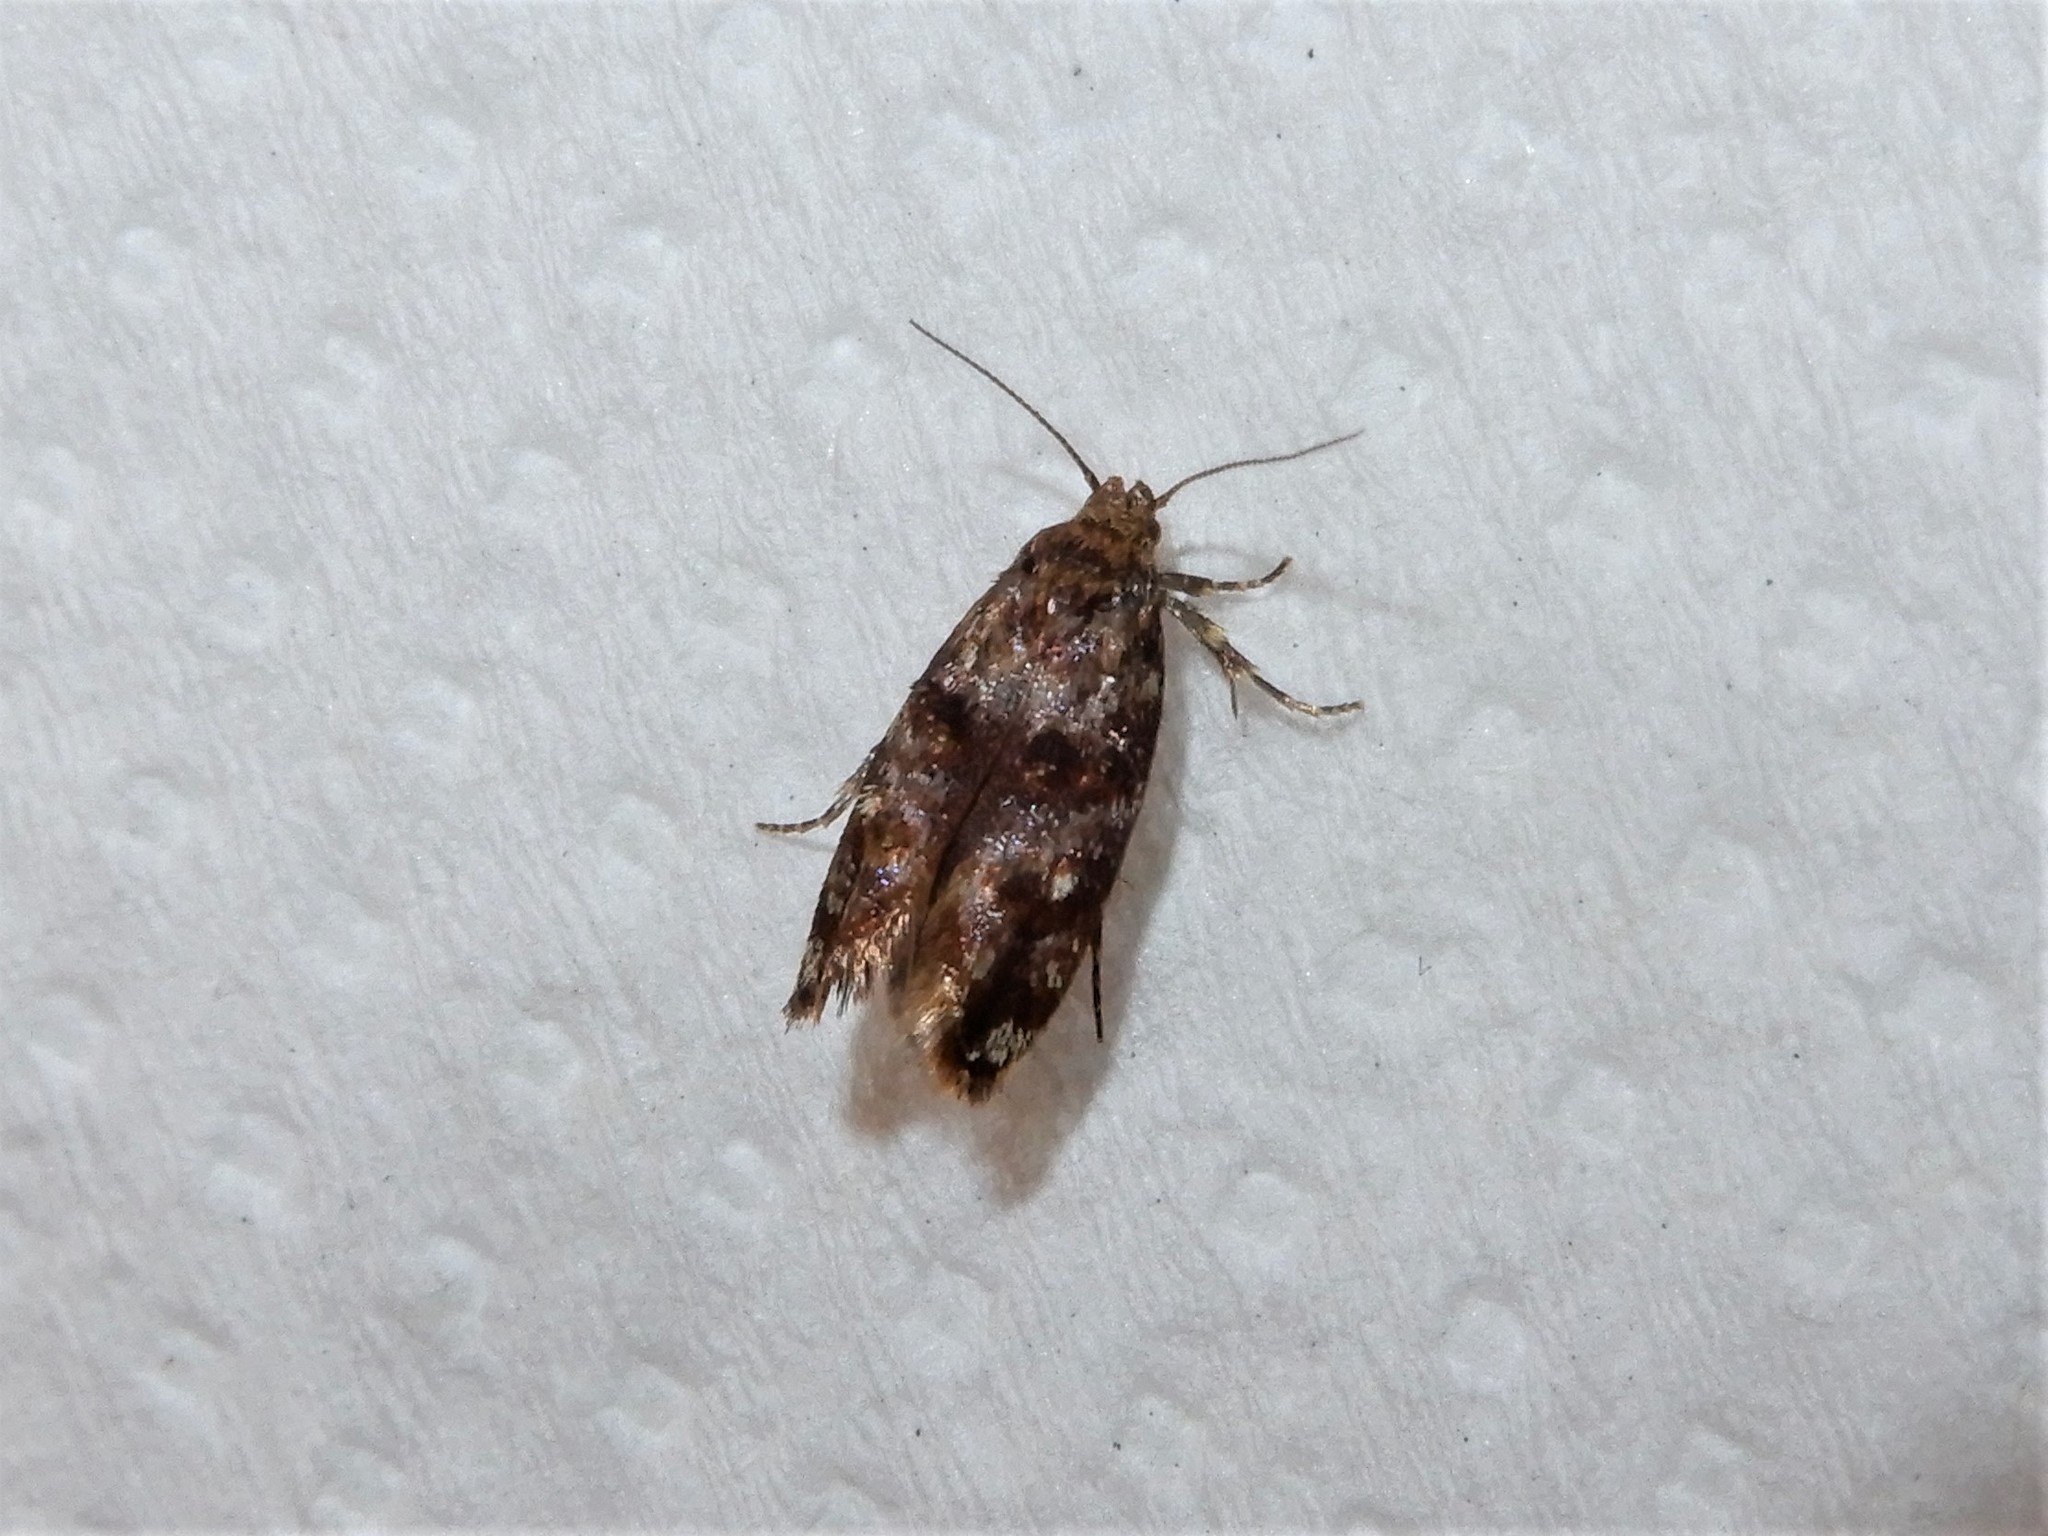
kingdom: Animalia
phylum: Arthropoda
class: Insecta
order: Lepidoptera
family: Oecophoridae
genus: Tingena
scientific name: Tingena eumenopa
